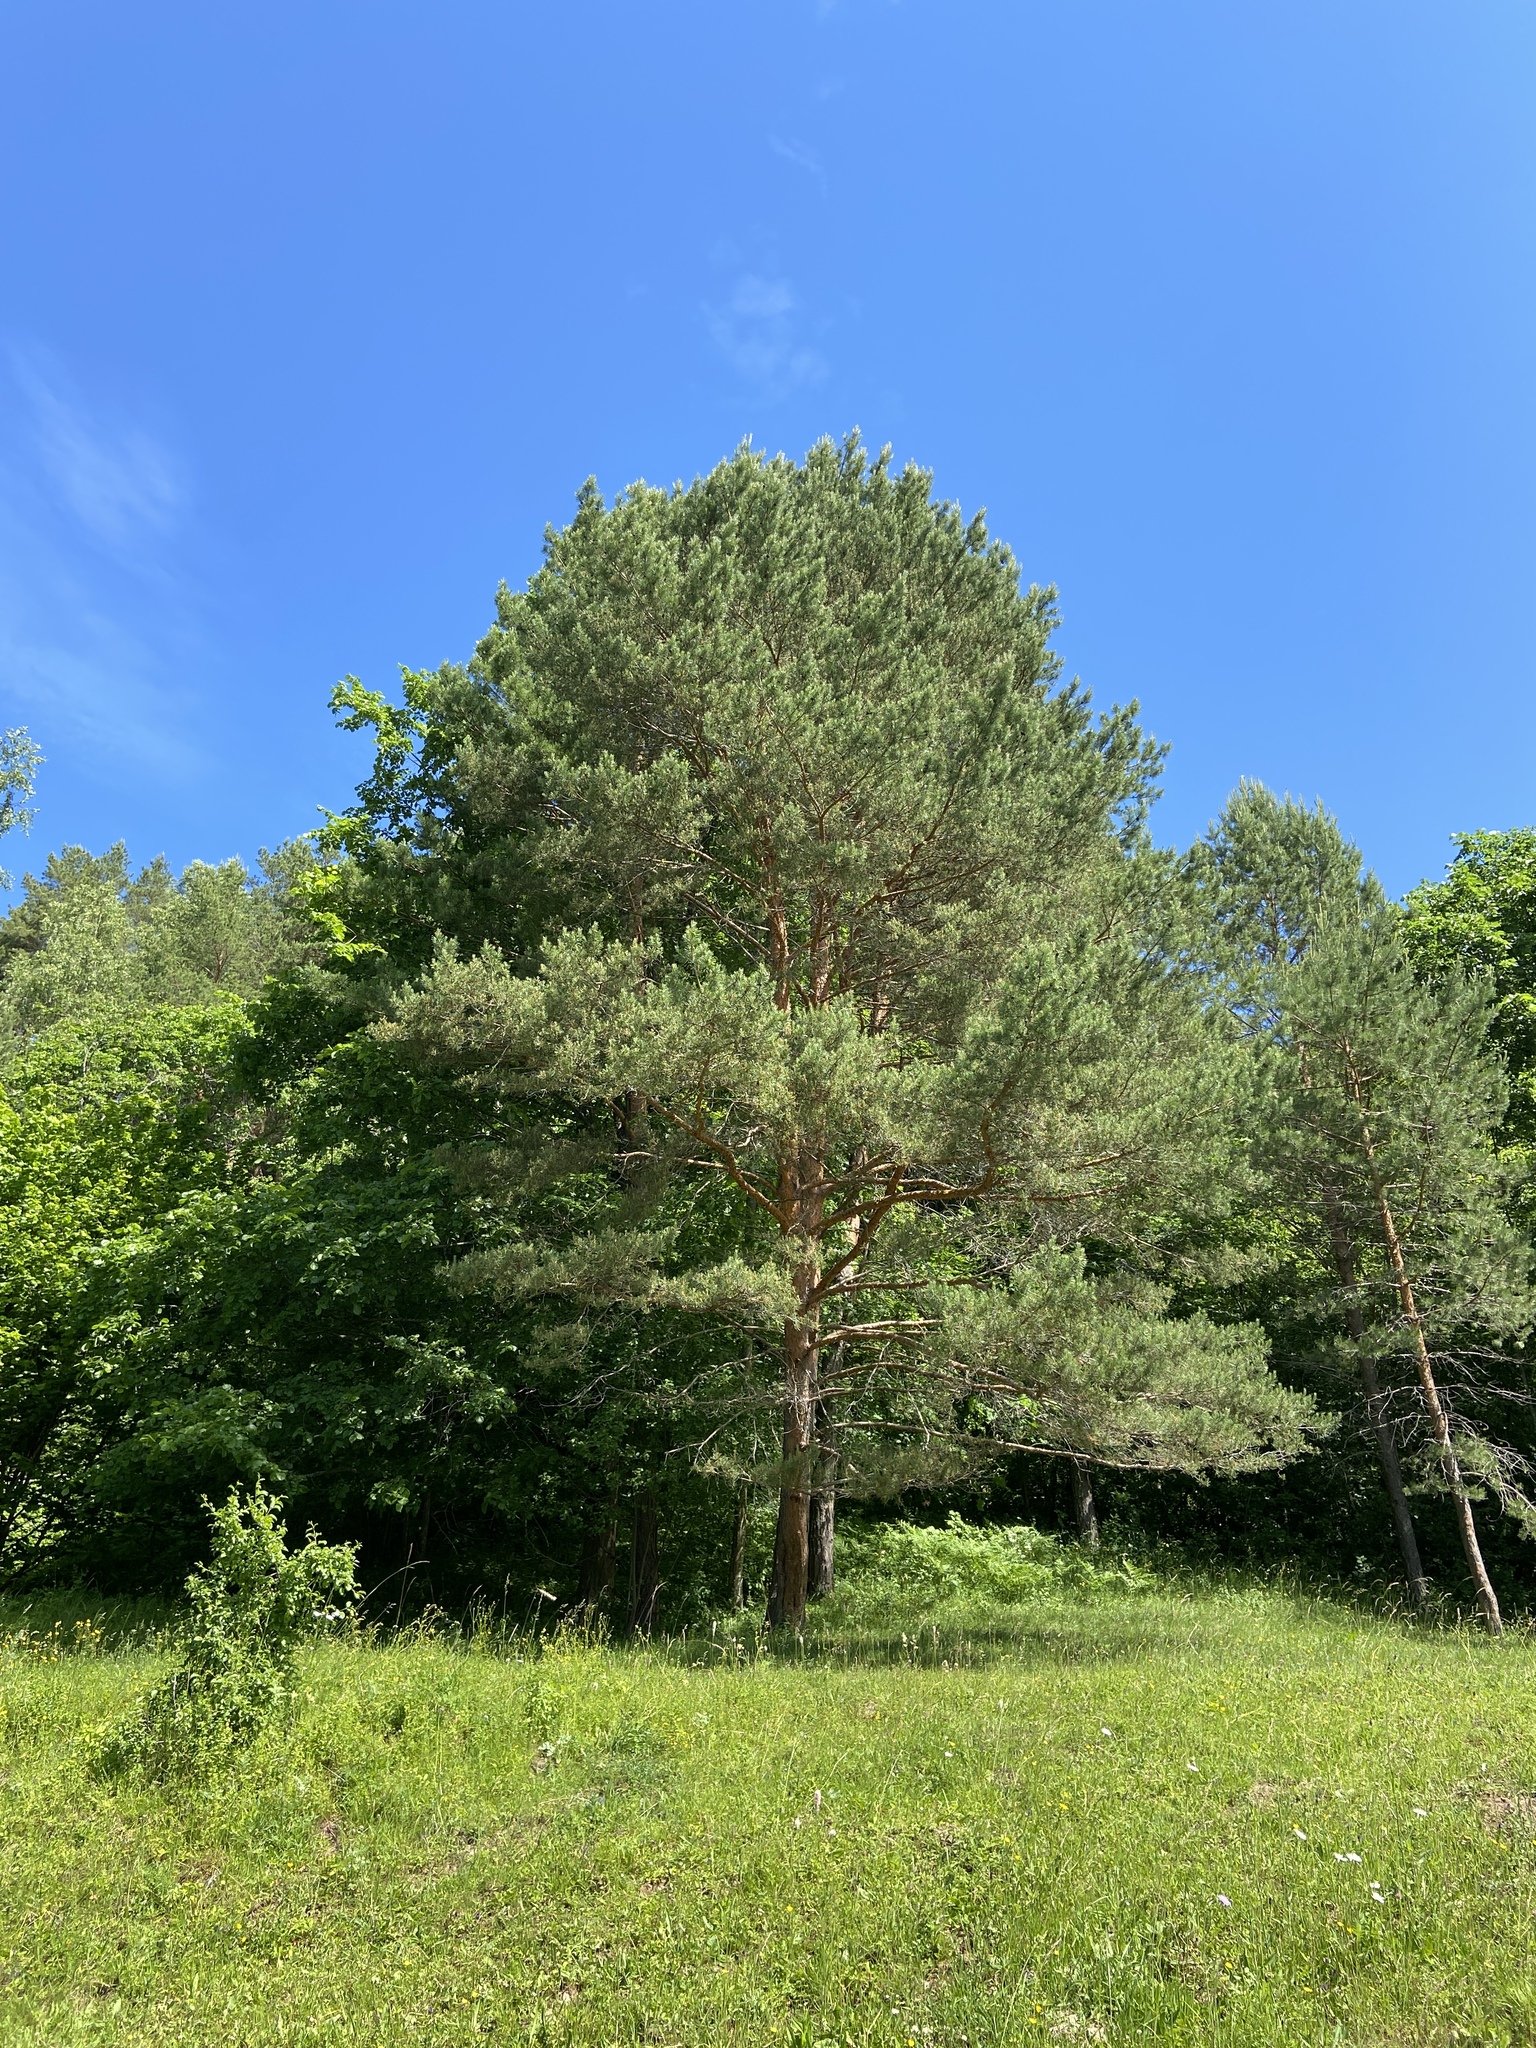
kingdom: Plantae
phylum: Tracheophyta
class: Pinopsida
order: Pinales
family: Pinaceae
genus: Pinus
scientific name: Pinus sylvestris
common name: Scots pine
